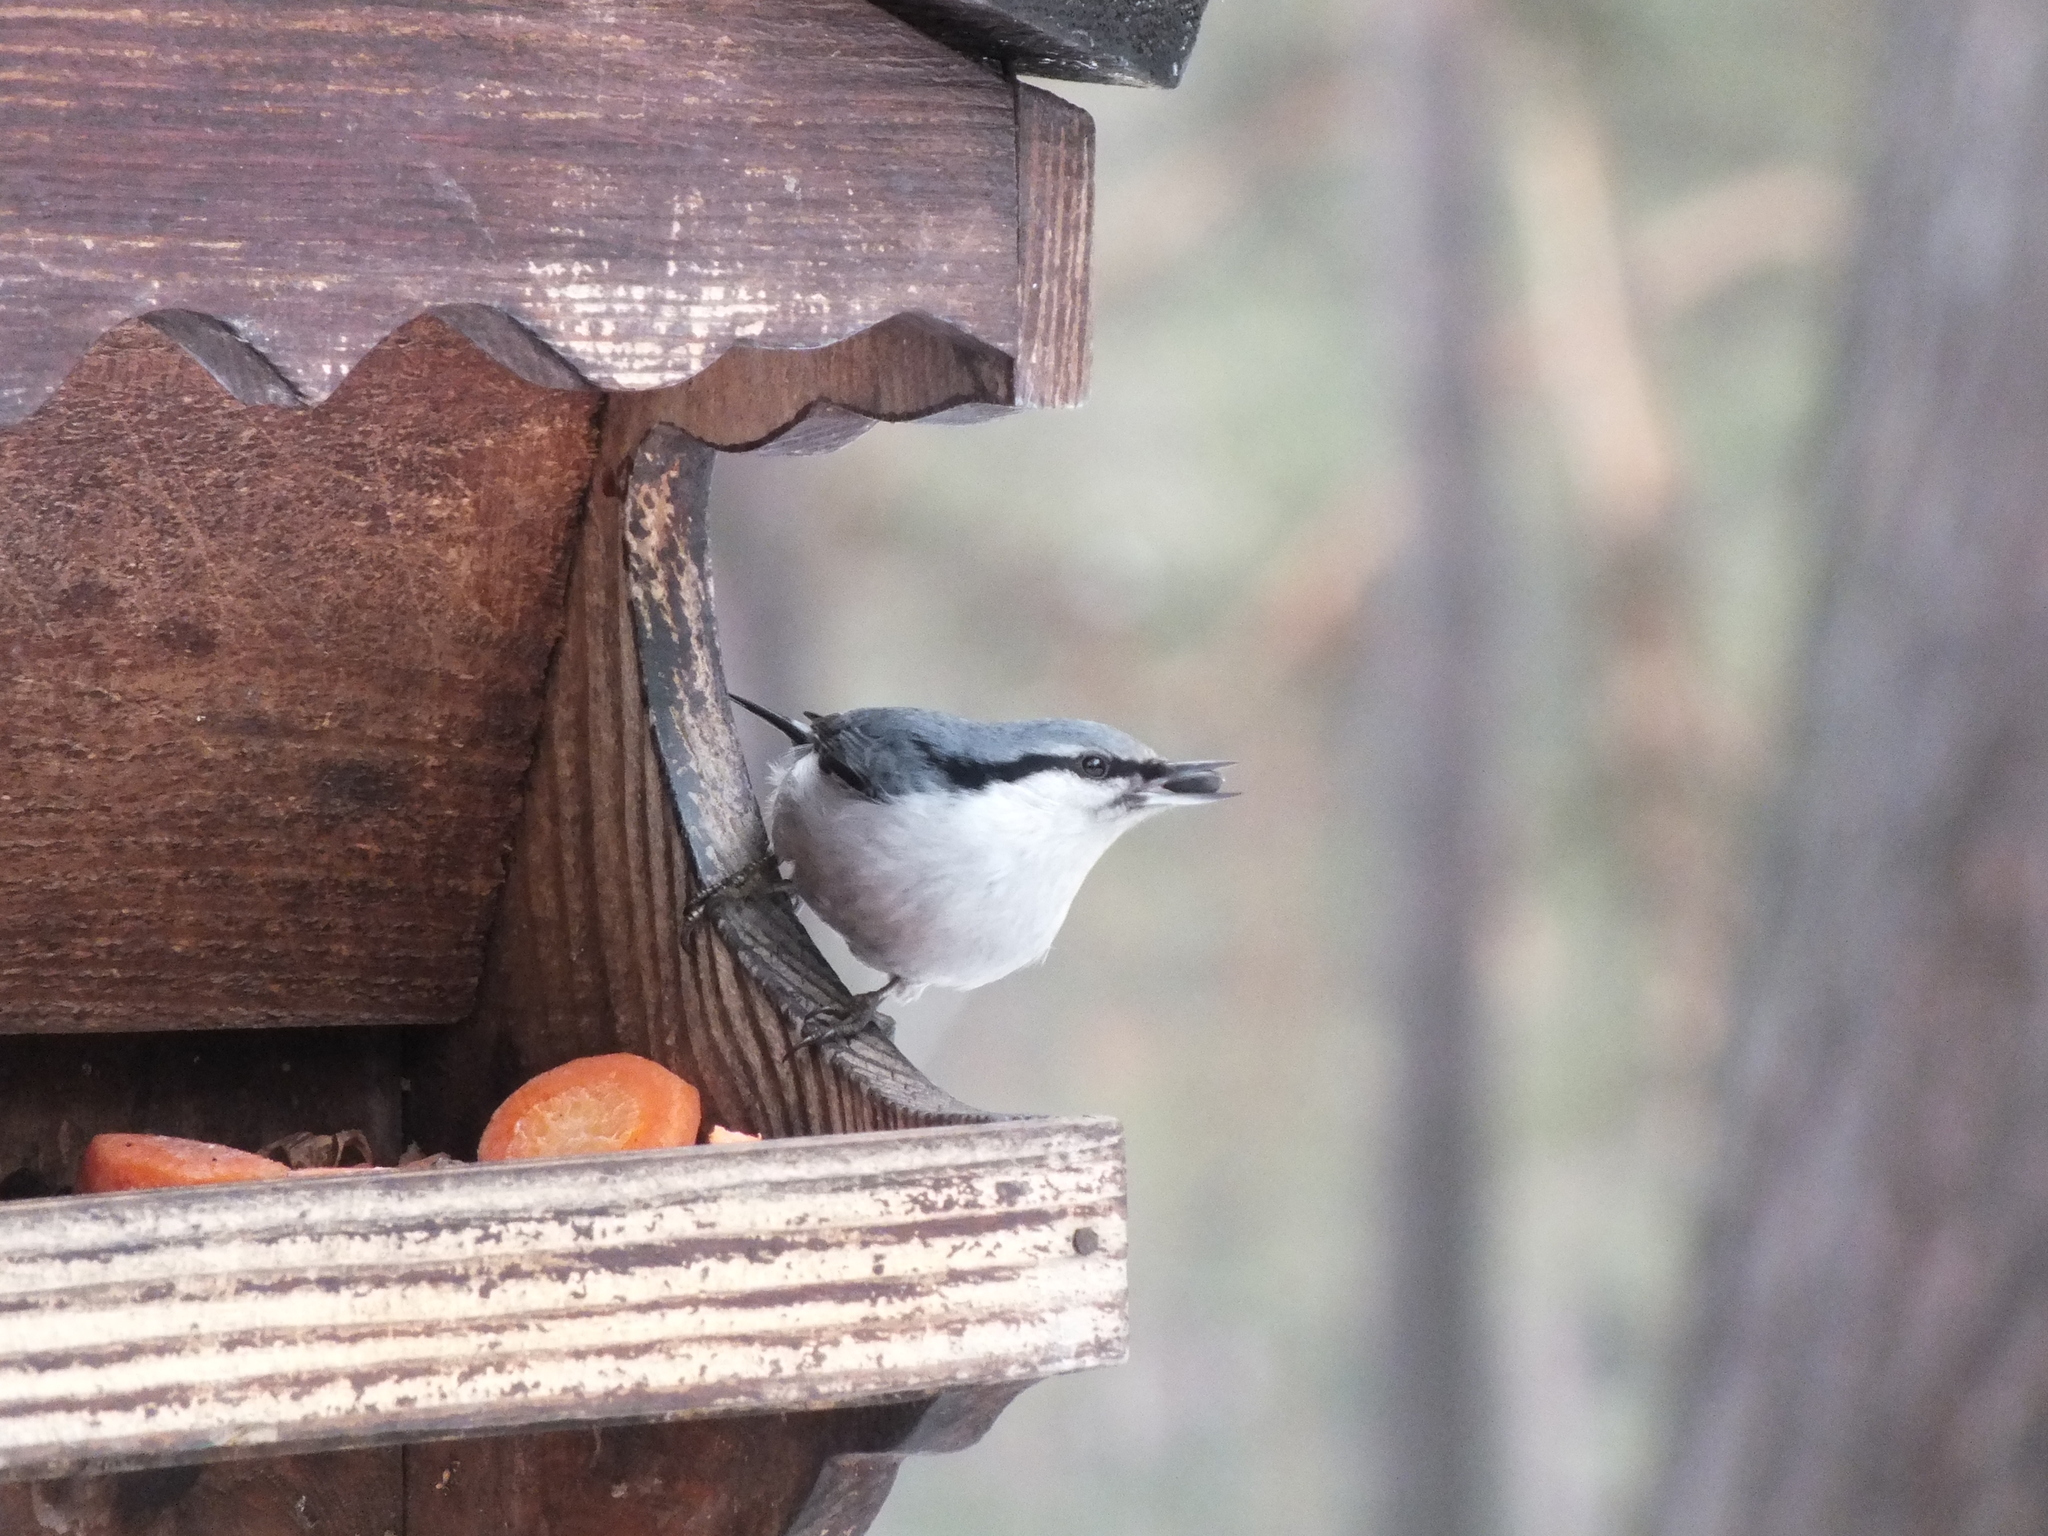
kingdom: Animalia
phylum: Chordata
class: Aves
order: Passeriformes
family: Sittidae
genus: Sitta
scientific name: Sitta europaea
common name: Eurasian nuthatch
